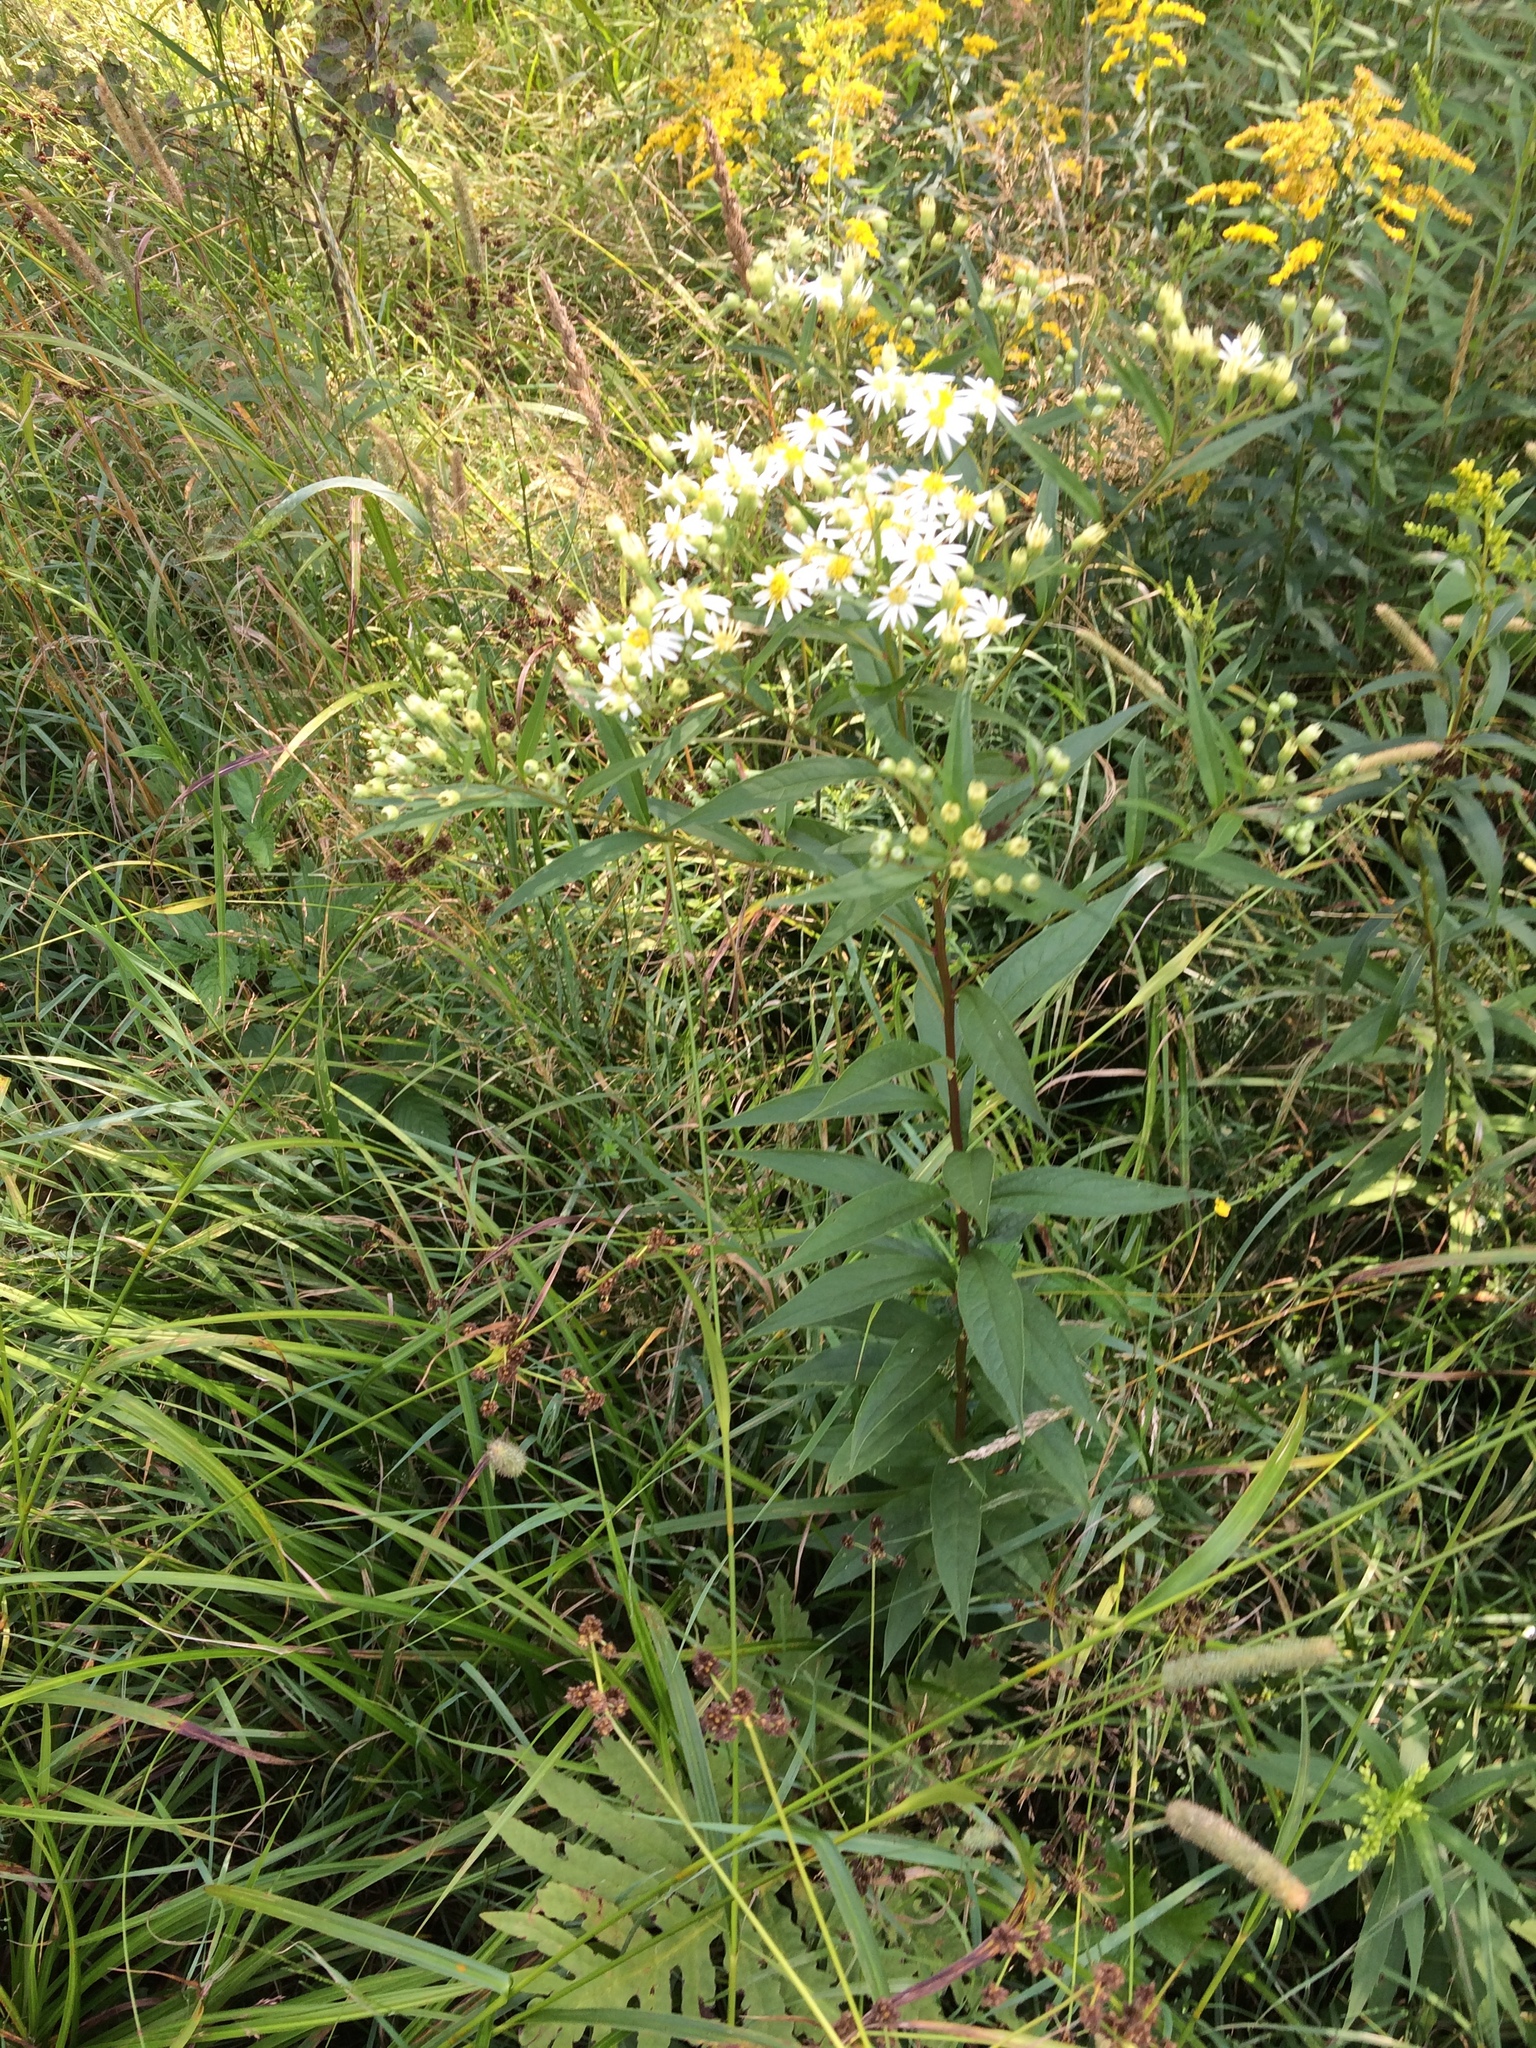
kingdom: Plantae
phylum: Tracheophyta
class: Magnoliopsida
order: Asterales
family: Asteraceae
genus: Doellingeria
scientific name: Doellingeria umbellata
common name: Flat-top white aster
